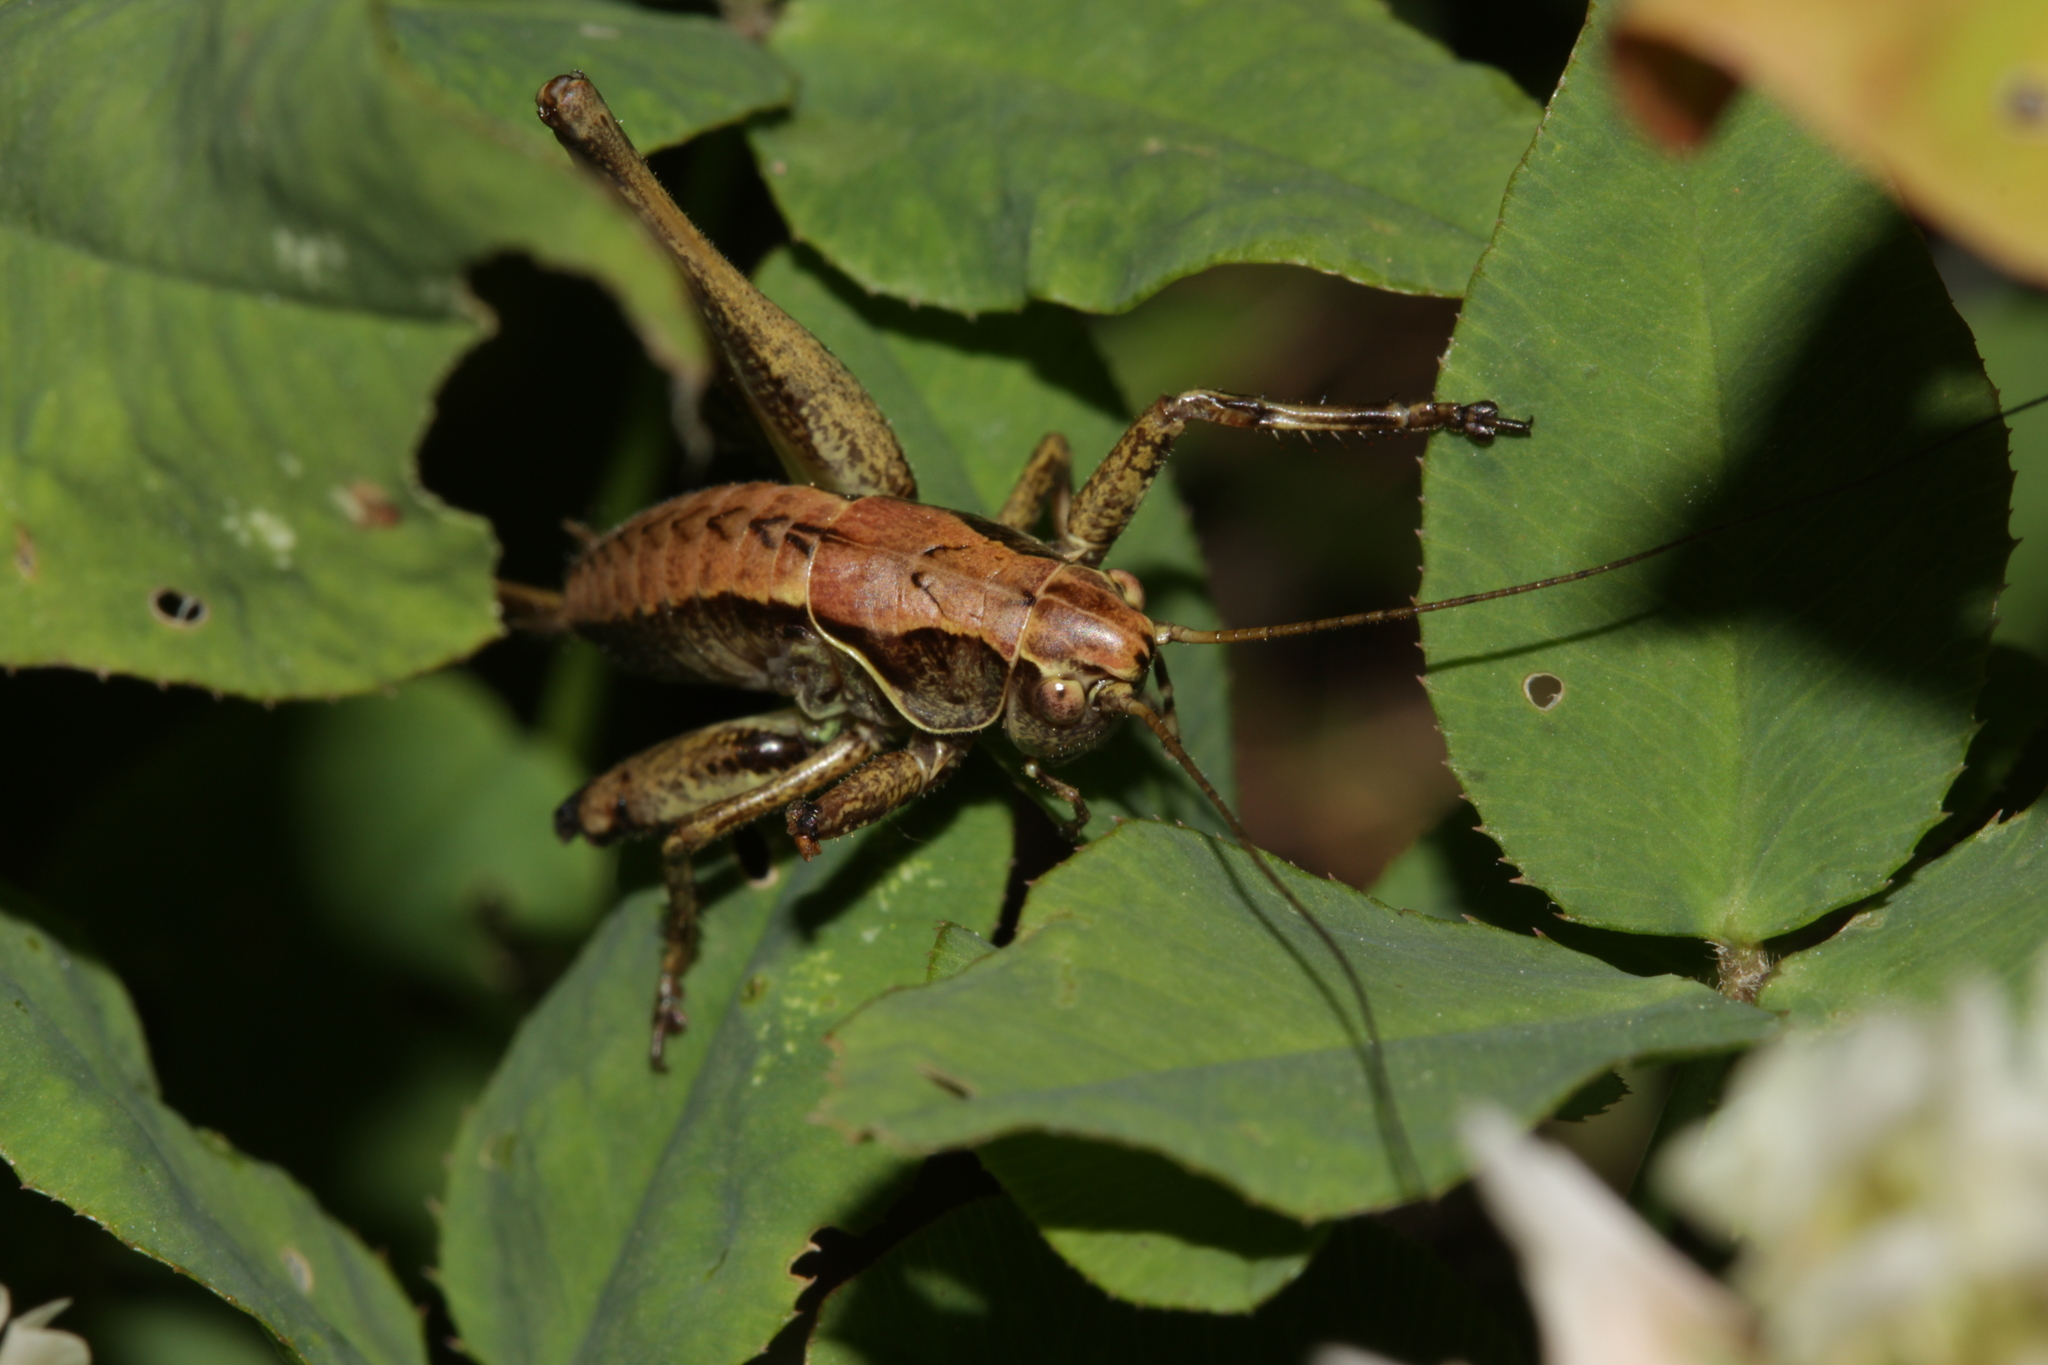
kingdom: Animalia
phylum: Arthropoda
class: Insecta
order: Orthoptera
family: Tettigoniidae
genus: Pholidoptera
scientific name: Pholidoptera griseoaptera
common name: Dark bush-cricket
